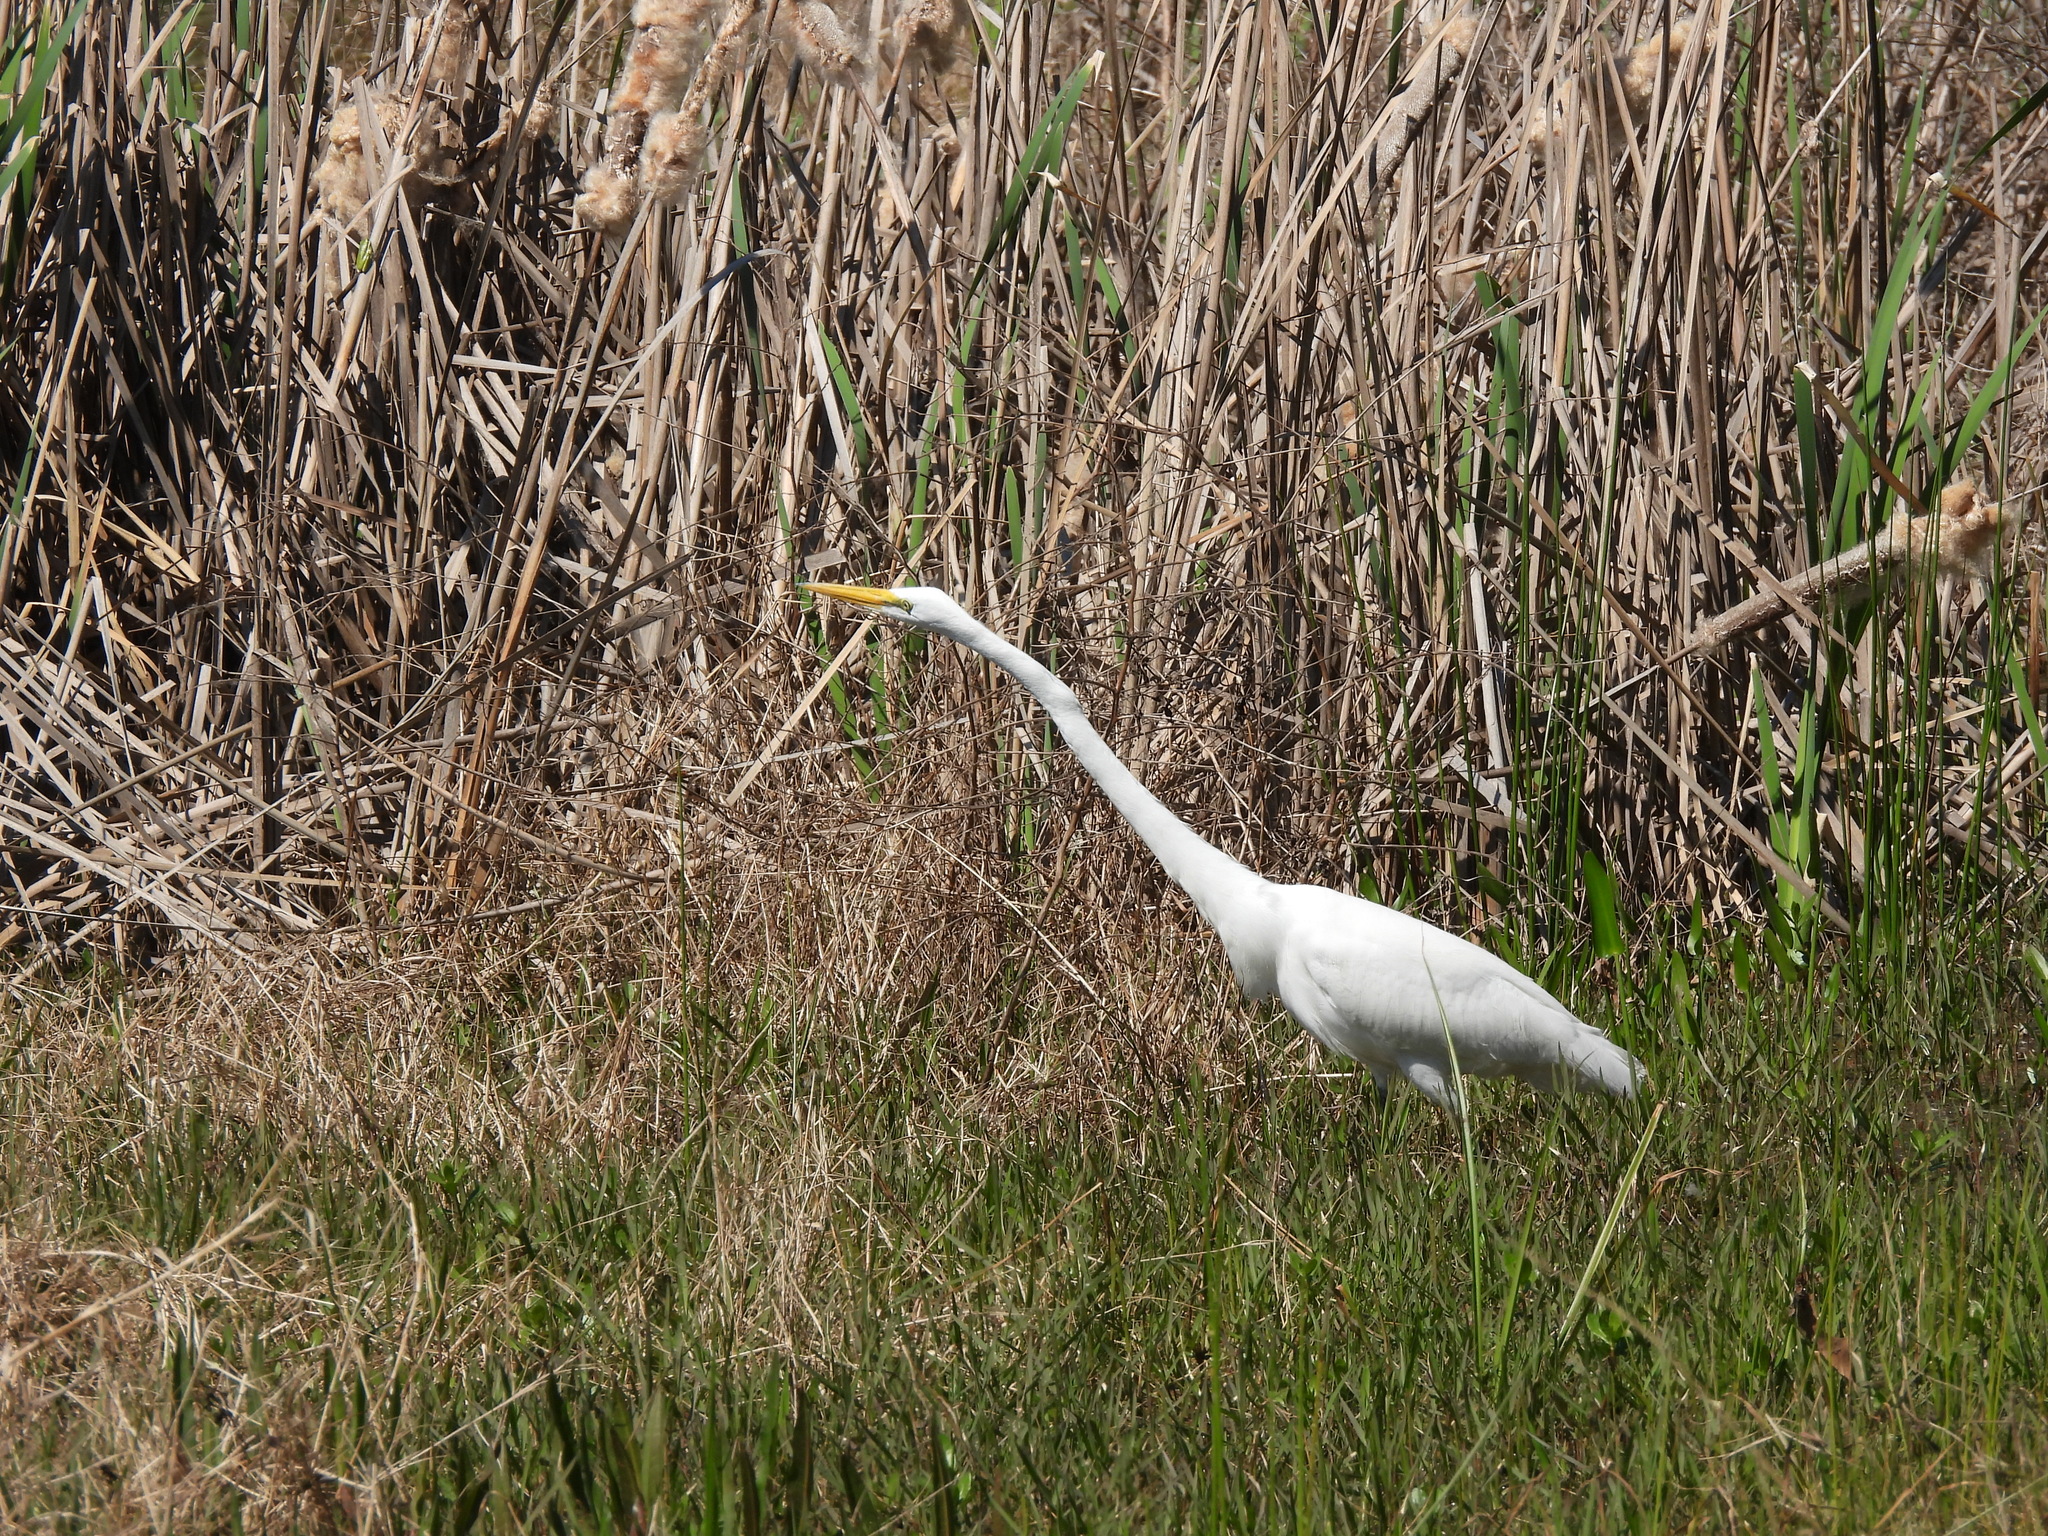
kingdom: Animalia
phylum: Chordata
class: Aves
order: Pelecaniformes
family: Ardeidae
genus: Ardea
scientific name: Ardea alba
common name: Great egret
